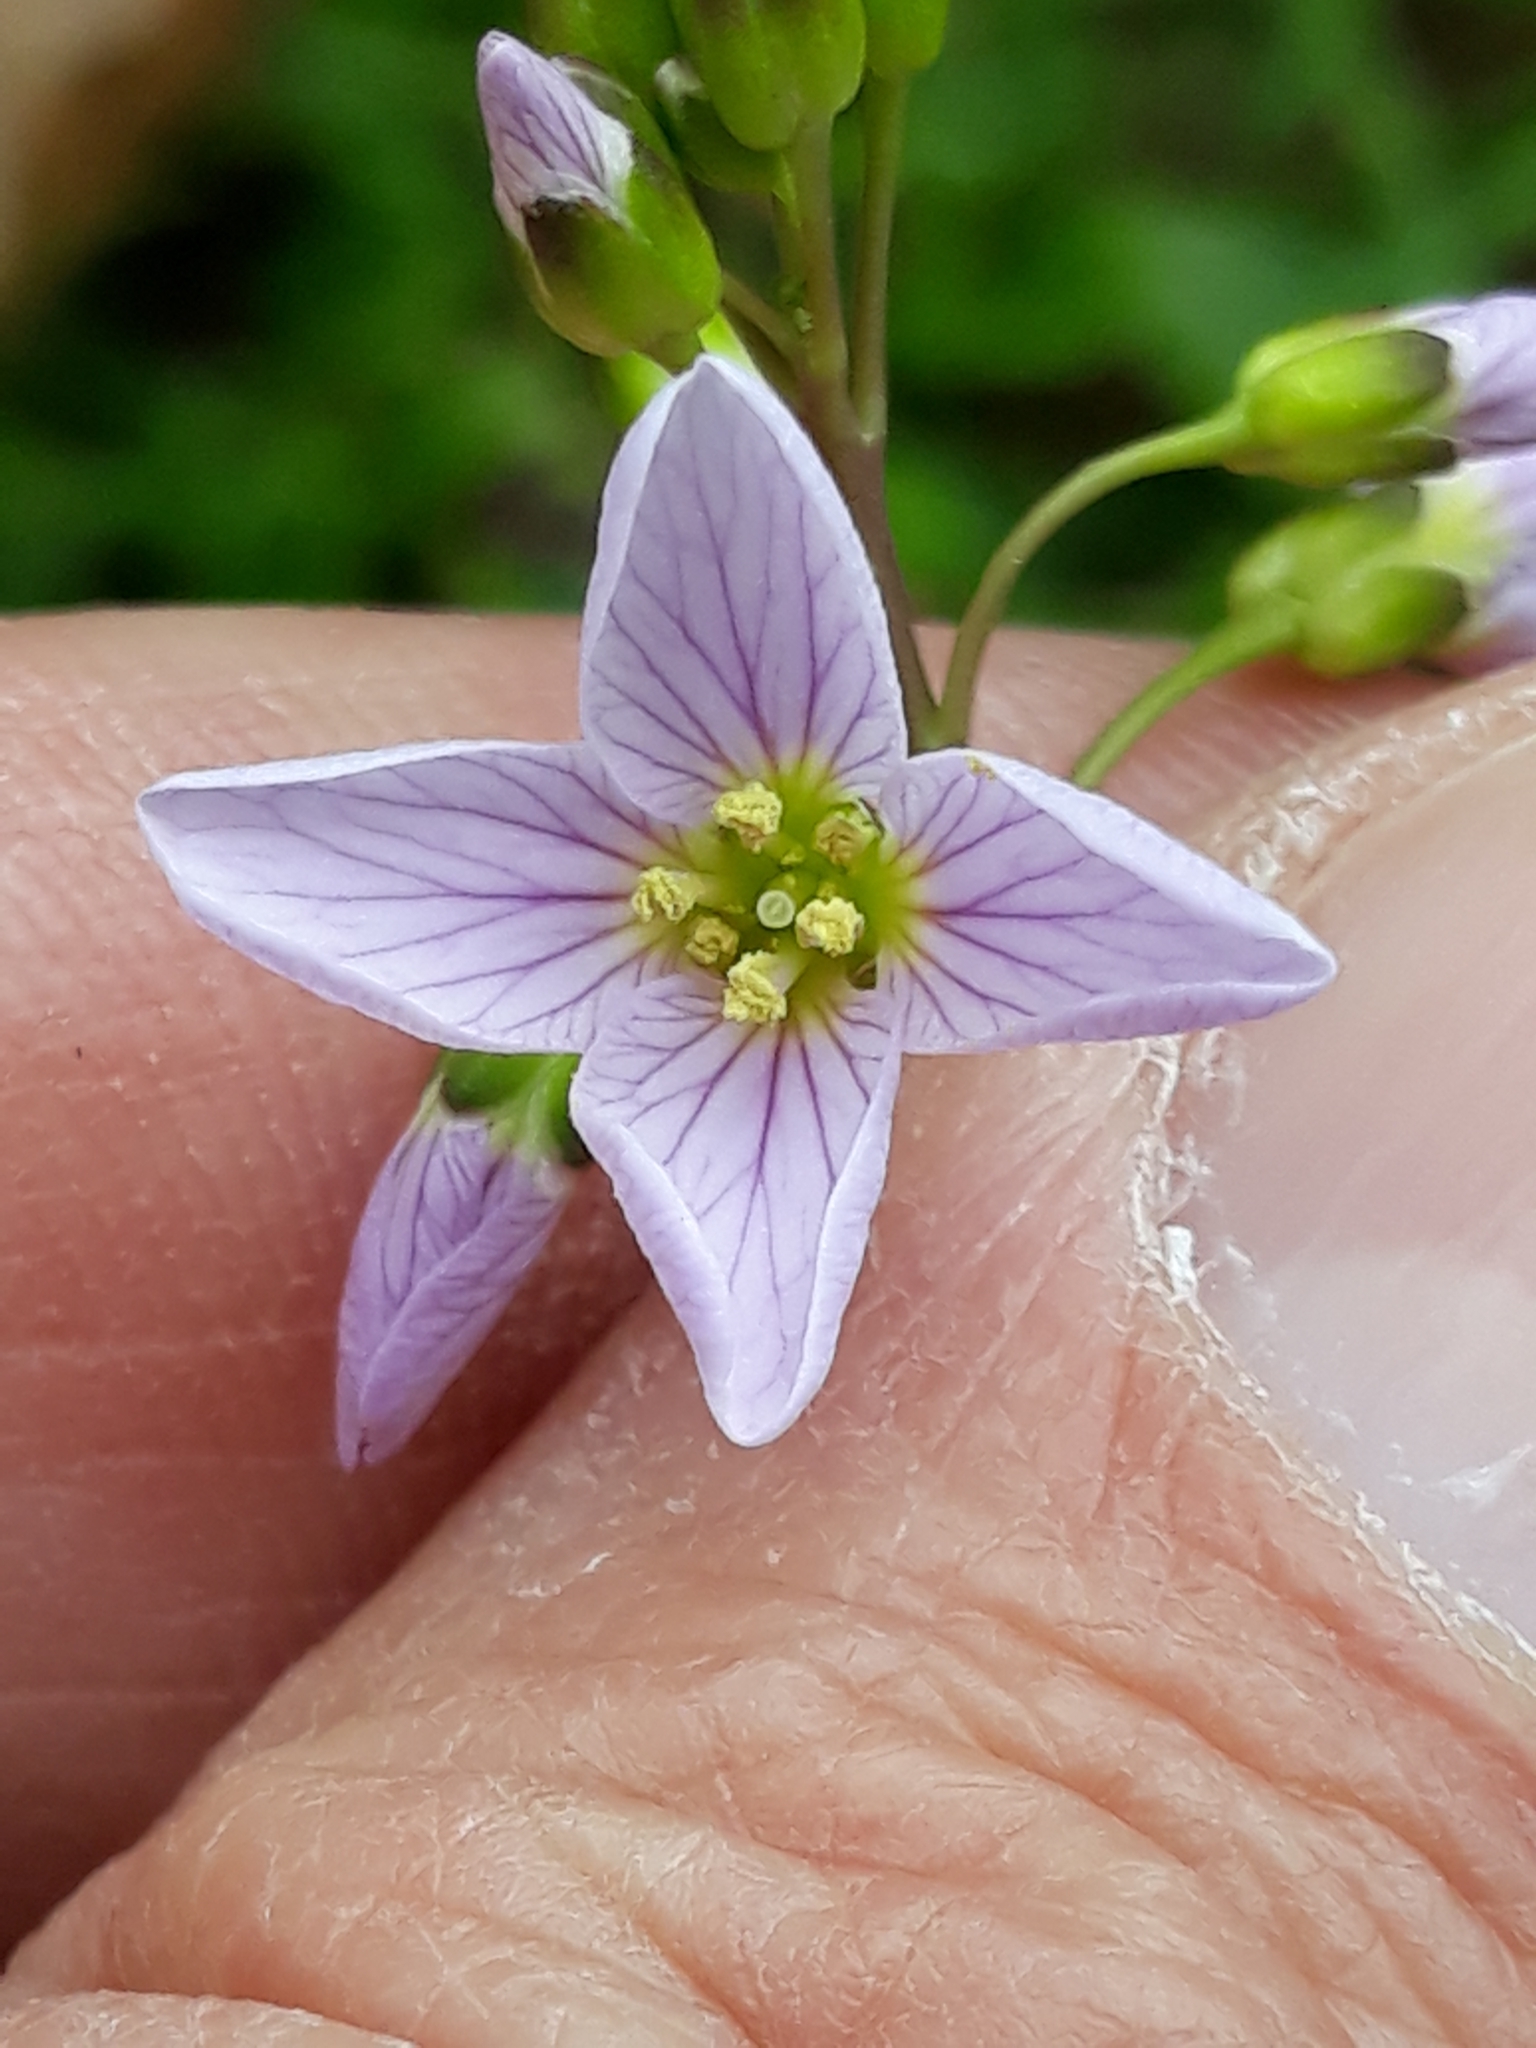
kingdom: Plantae
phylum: Tracheophyta
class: Magnoliopsida
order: Brassicales
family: Brassicaceae
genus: Cardamine
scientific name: Cardamine pratensis
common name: Cuckoo flower
